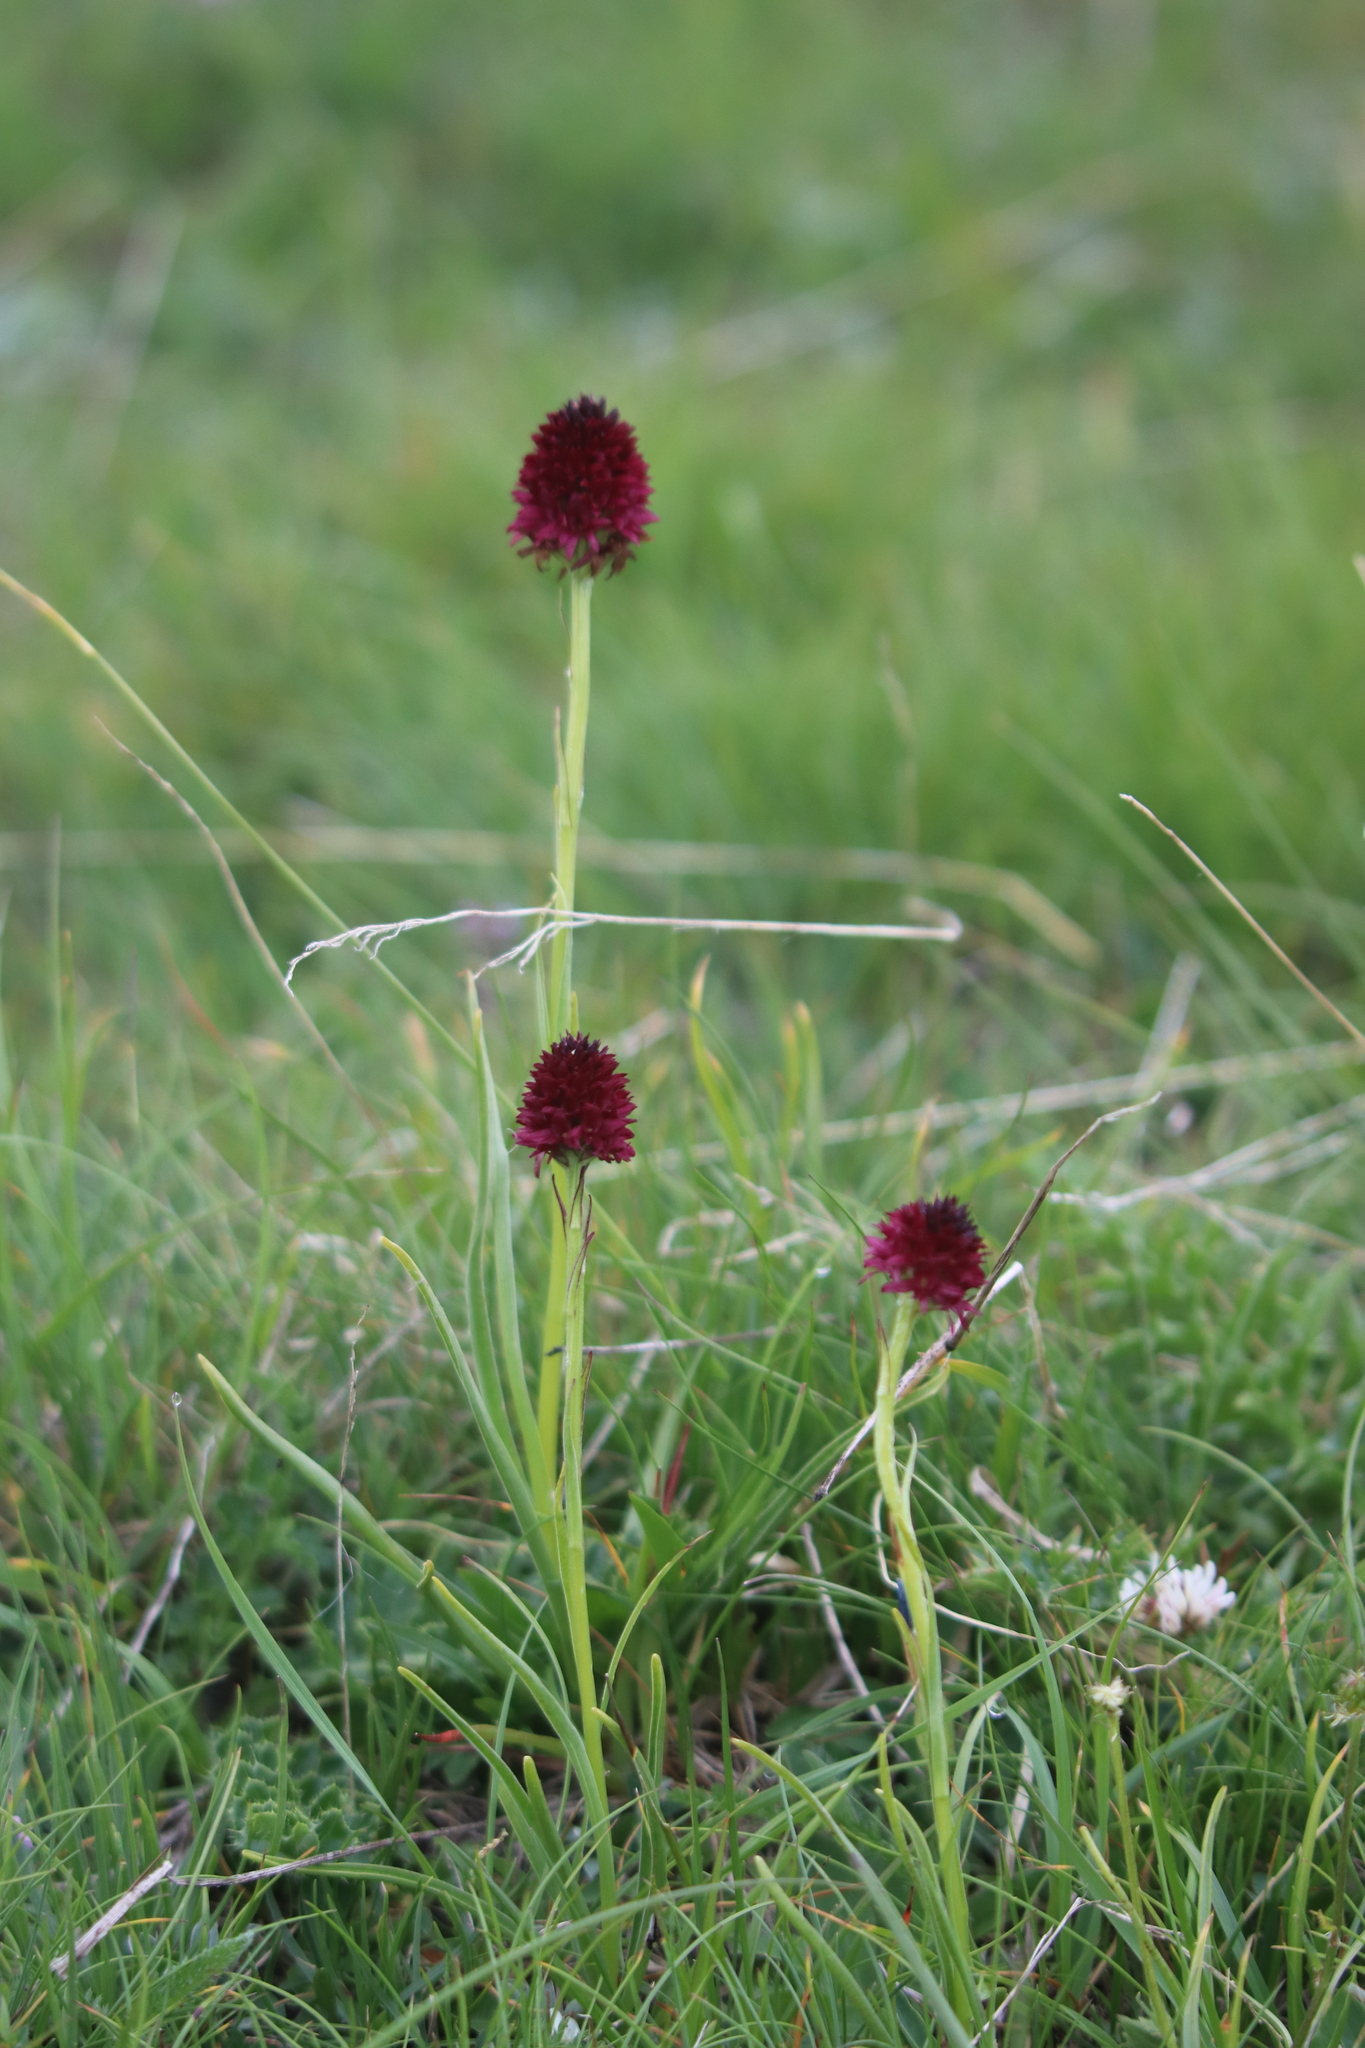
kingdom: Plantae
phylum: Tracheophyta
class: Liliopsida
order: Asparagales
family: Orchidaceae
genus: Gymnadenia
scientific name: Gymnadenia rhellicani
